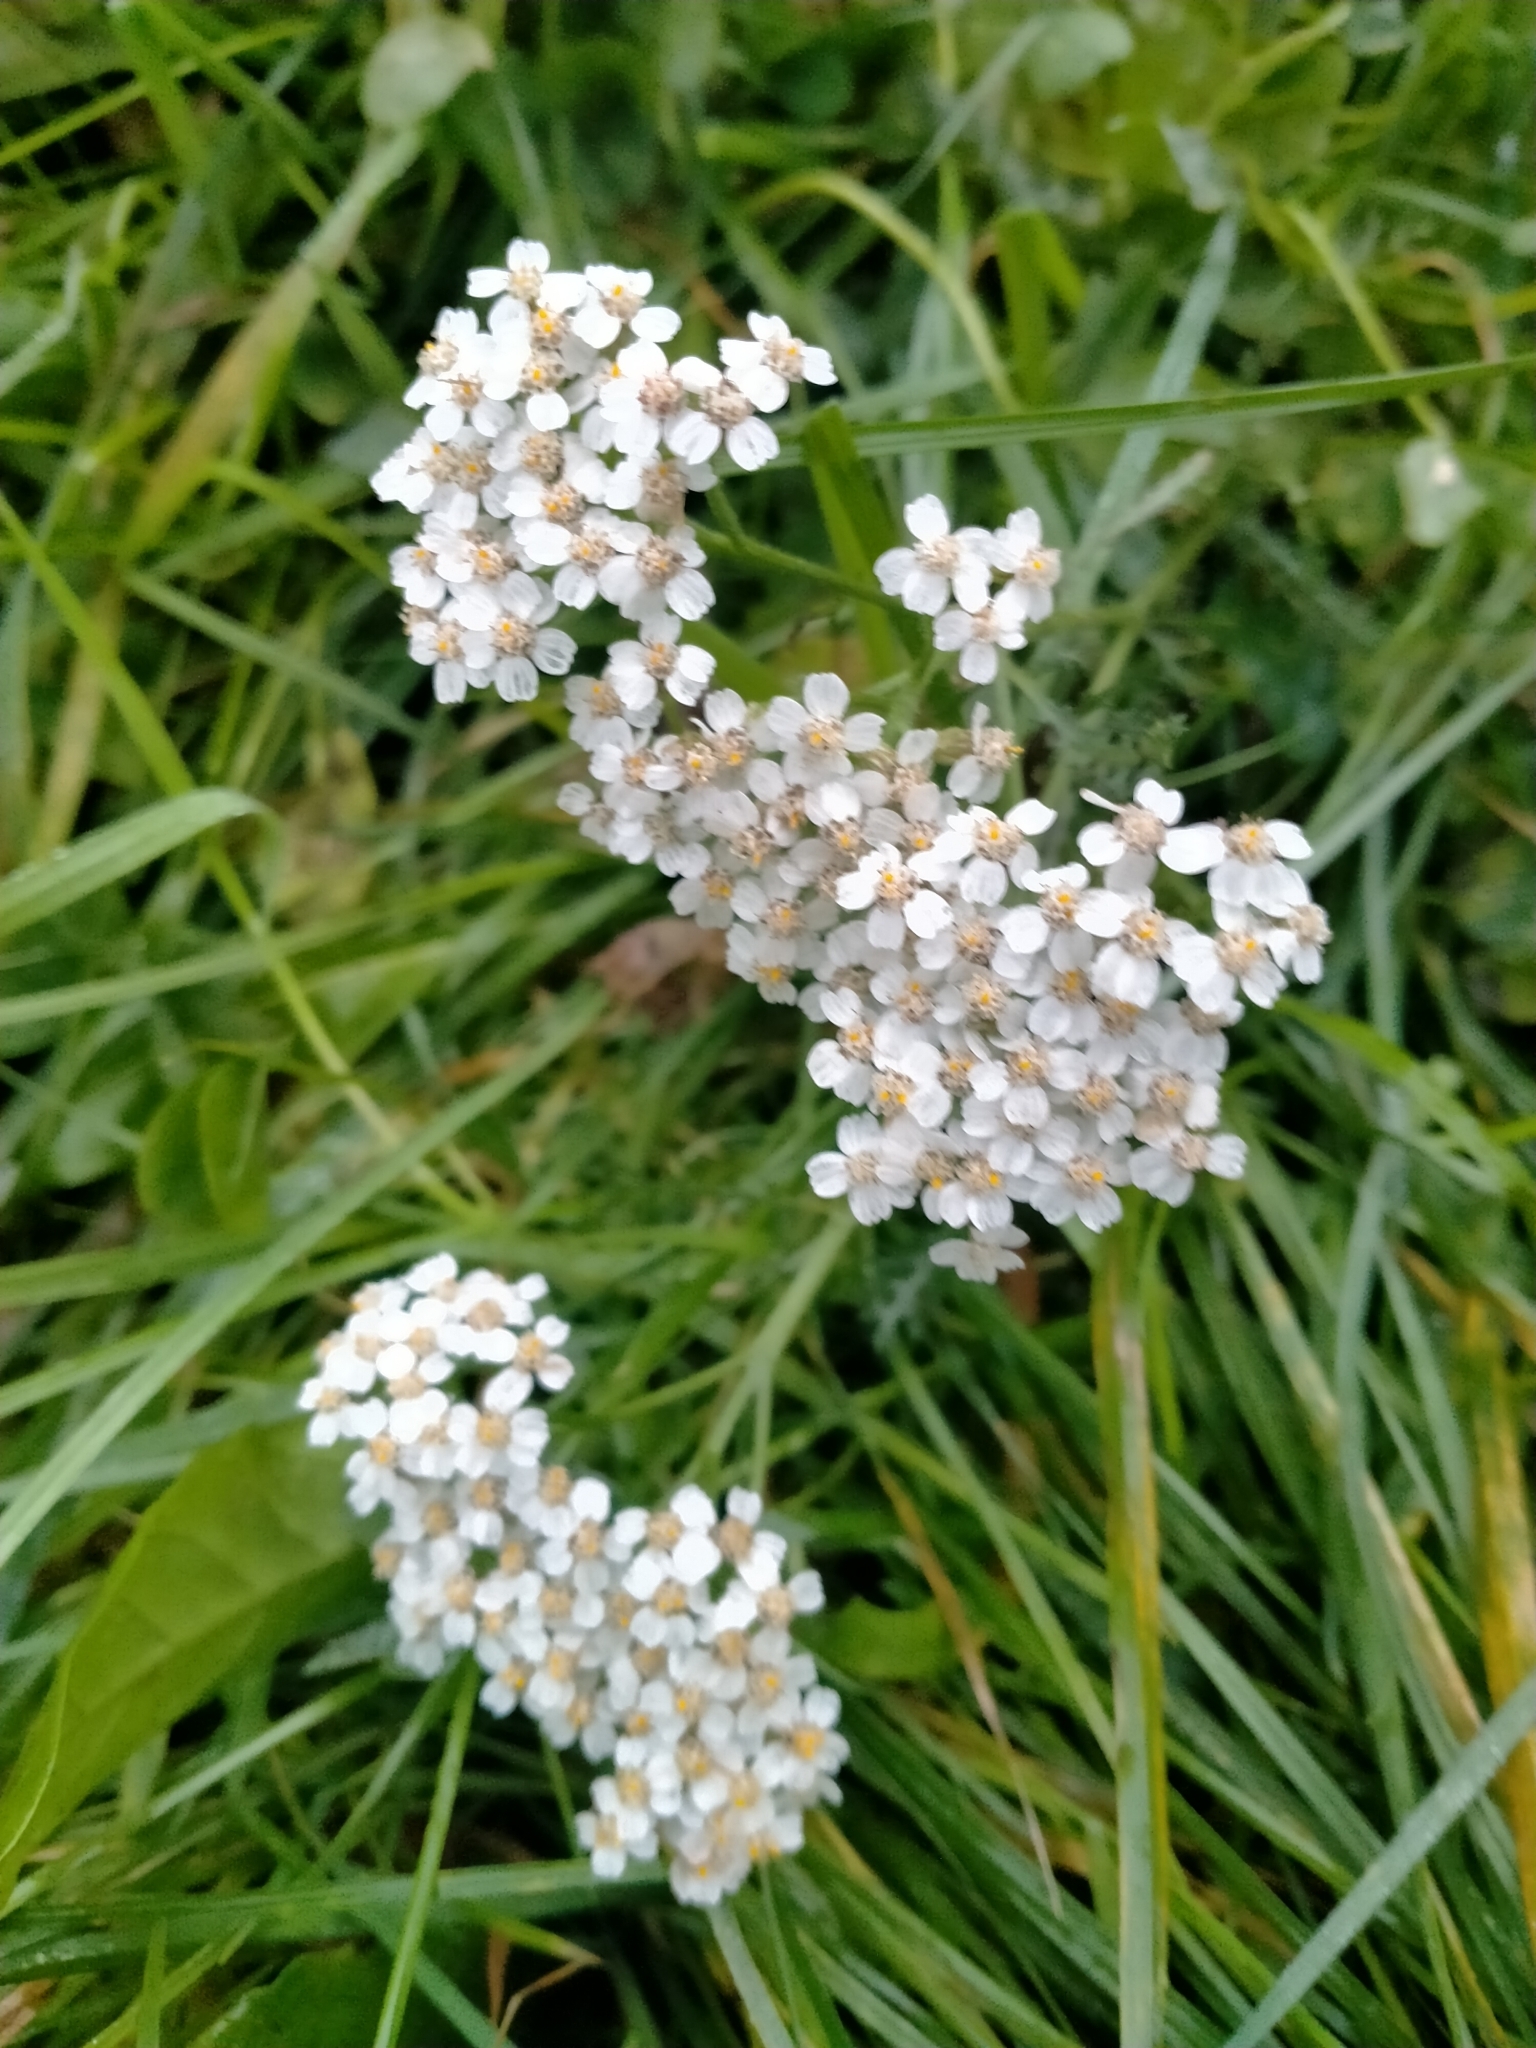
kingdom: Plantae
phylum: Tracheophyta
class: Magnoliopsida
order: Asterales
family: Asteraceae
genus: Achillea
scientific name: Achillea millefolium
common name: Yarrow
